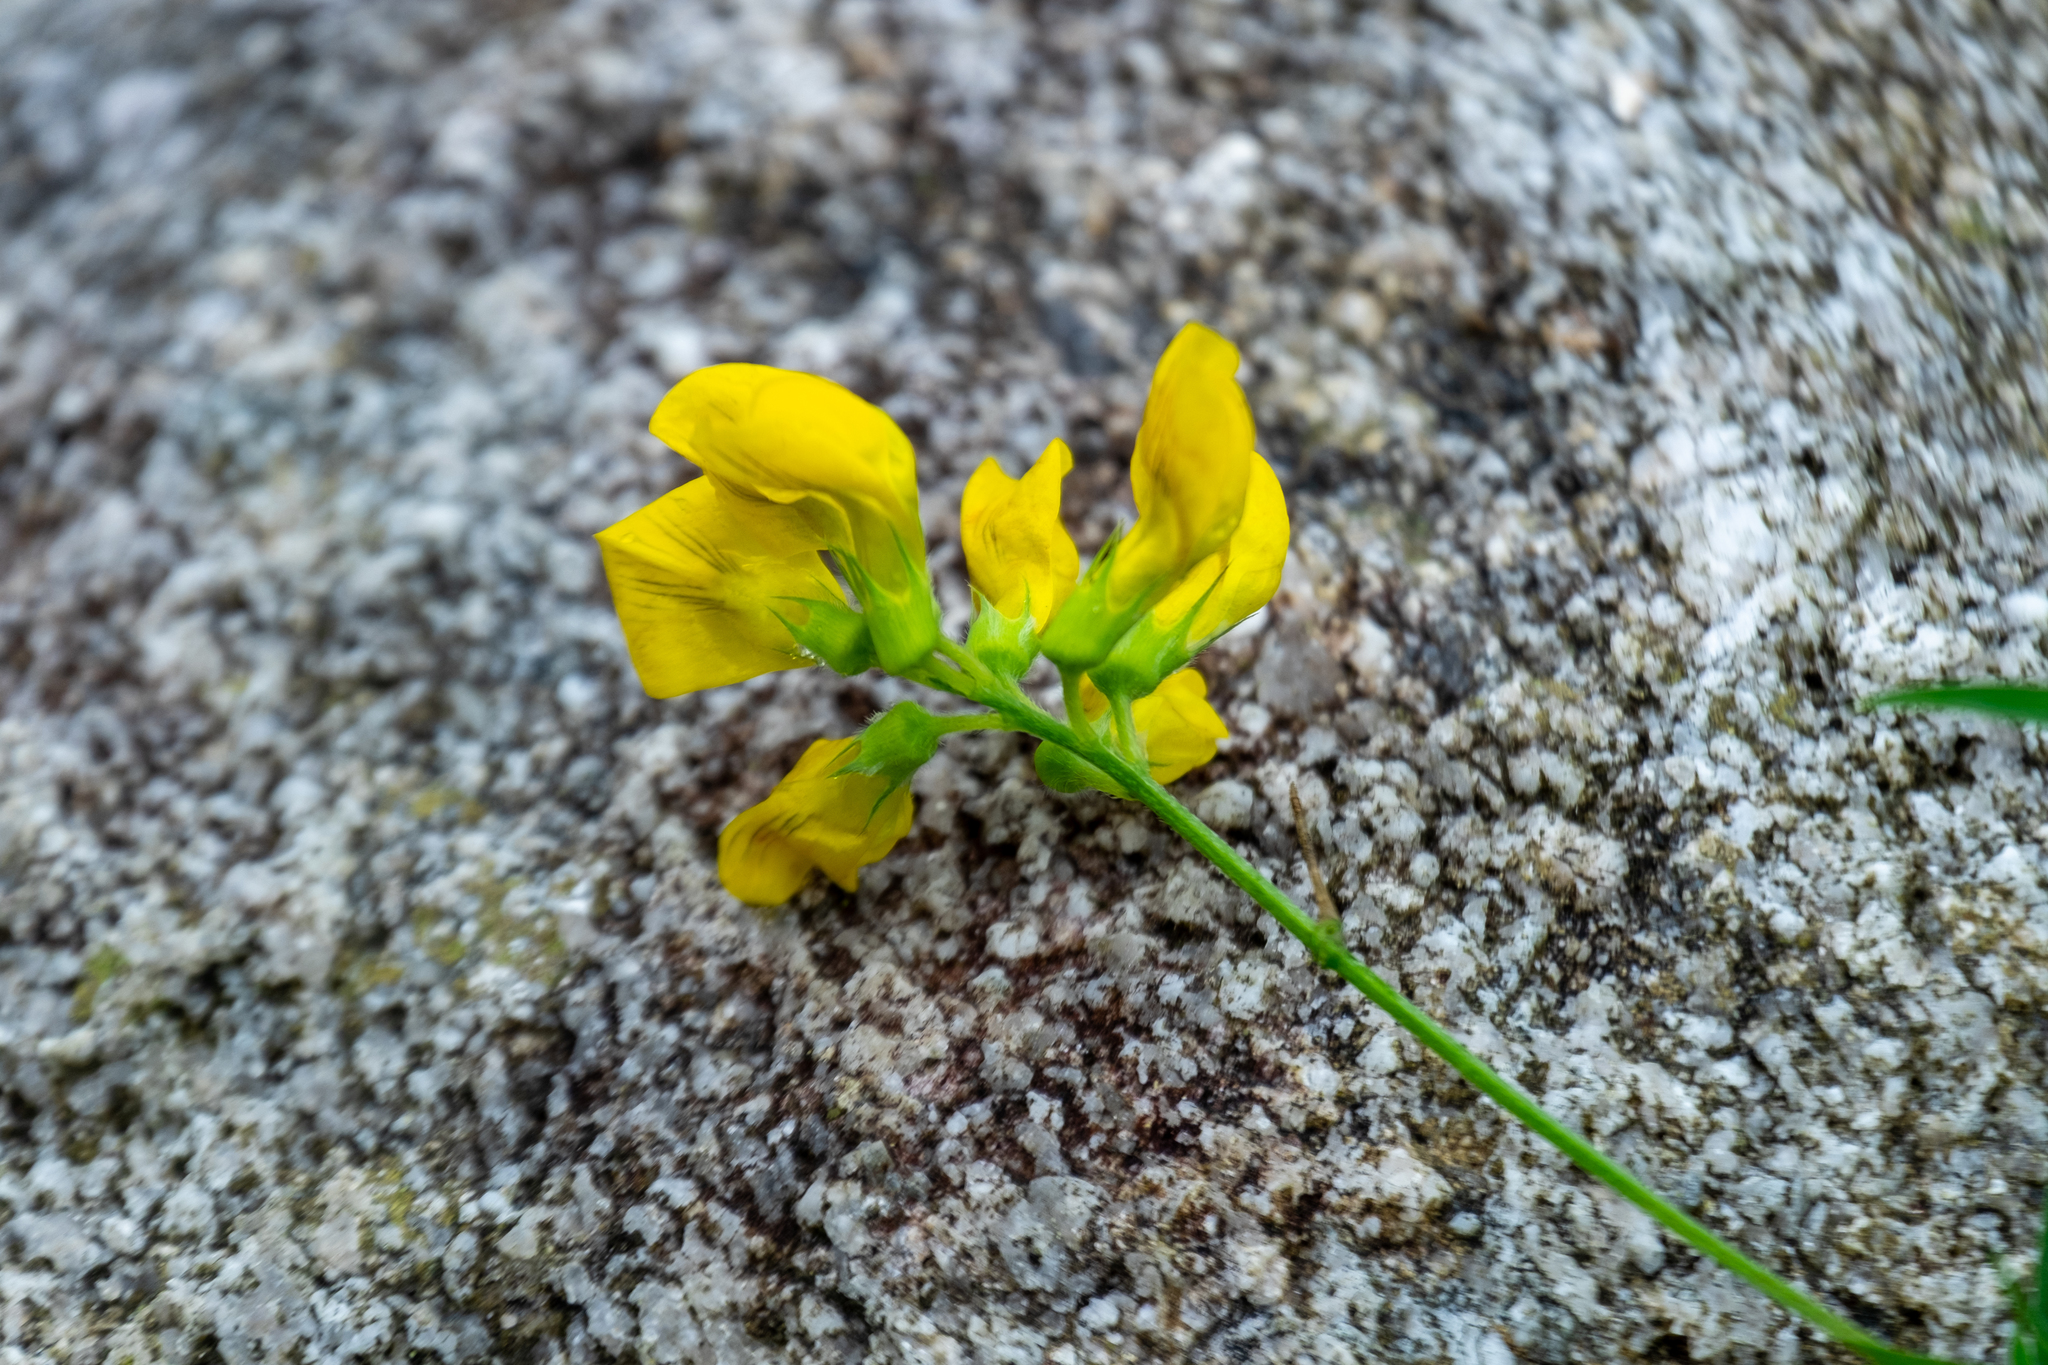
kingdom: Plantae
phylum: Tracheophyta
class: Magnoliopsida
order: Fabales
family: Fabaceae
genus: Lathyrus
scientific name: Lathyrus pratensis
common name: Meadow vetchling
